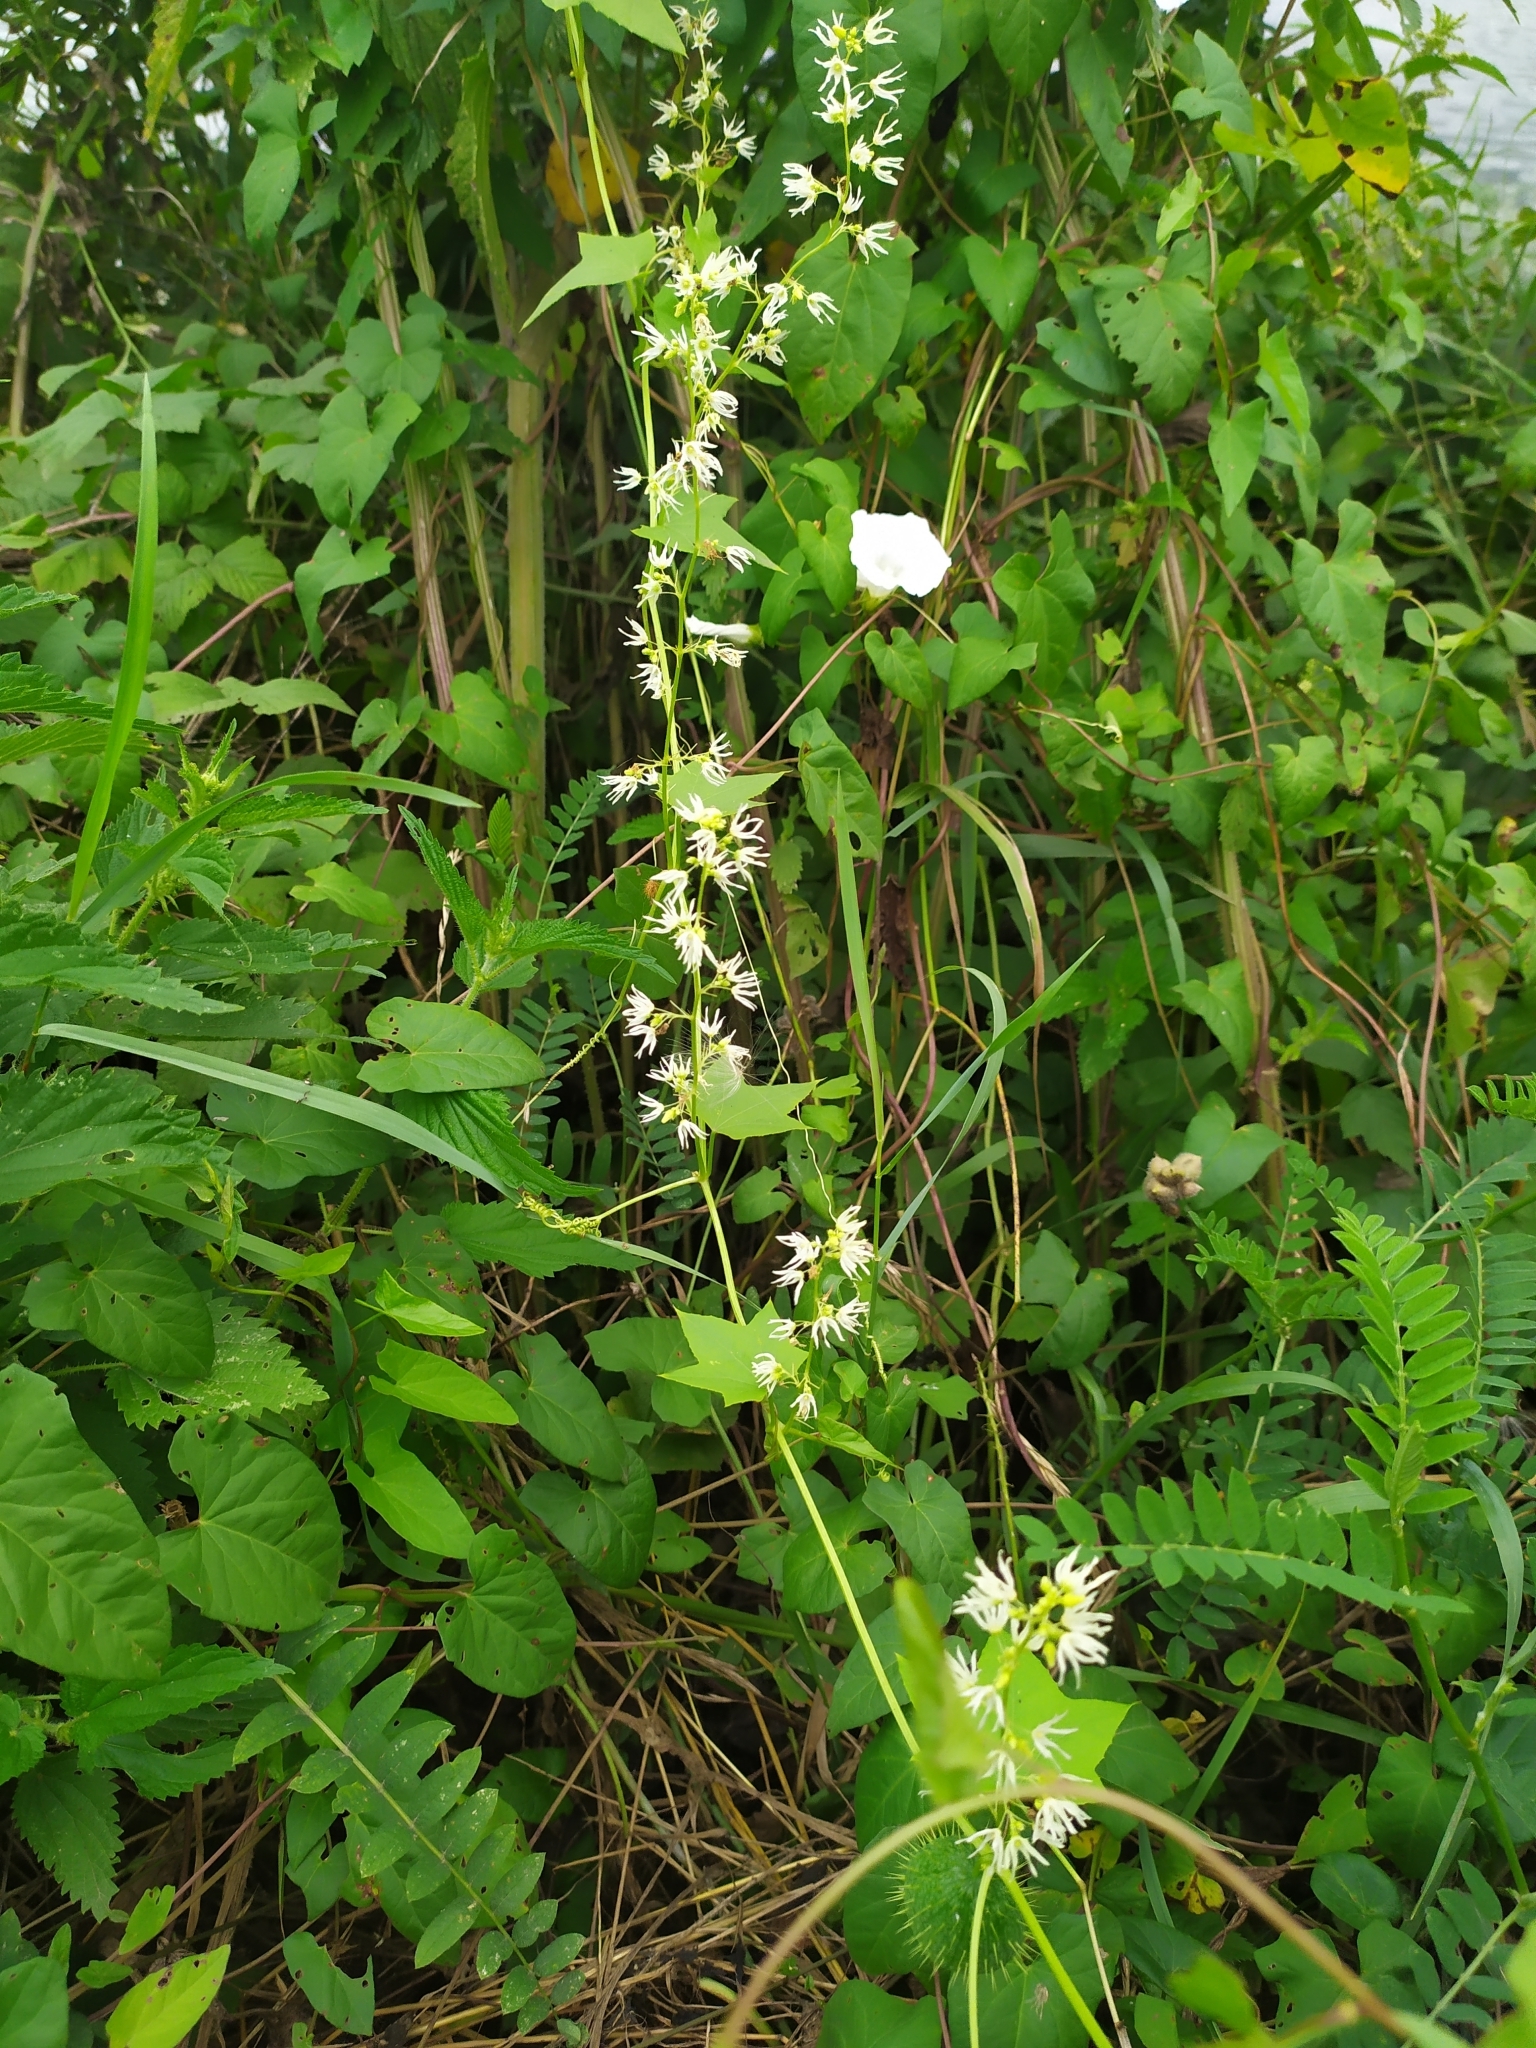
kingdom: Plantae
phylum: Tracheophyta
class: Magnoliopsida
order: Cucurbitales
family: Cucurbitaceae
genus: Echinocystis
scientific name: Echinocystis lobata
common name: Wild cucumber
